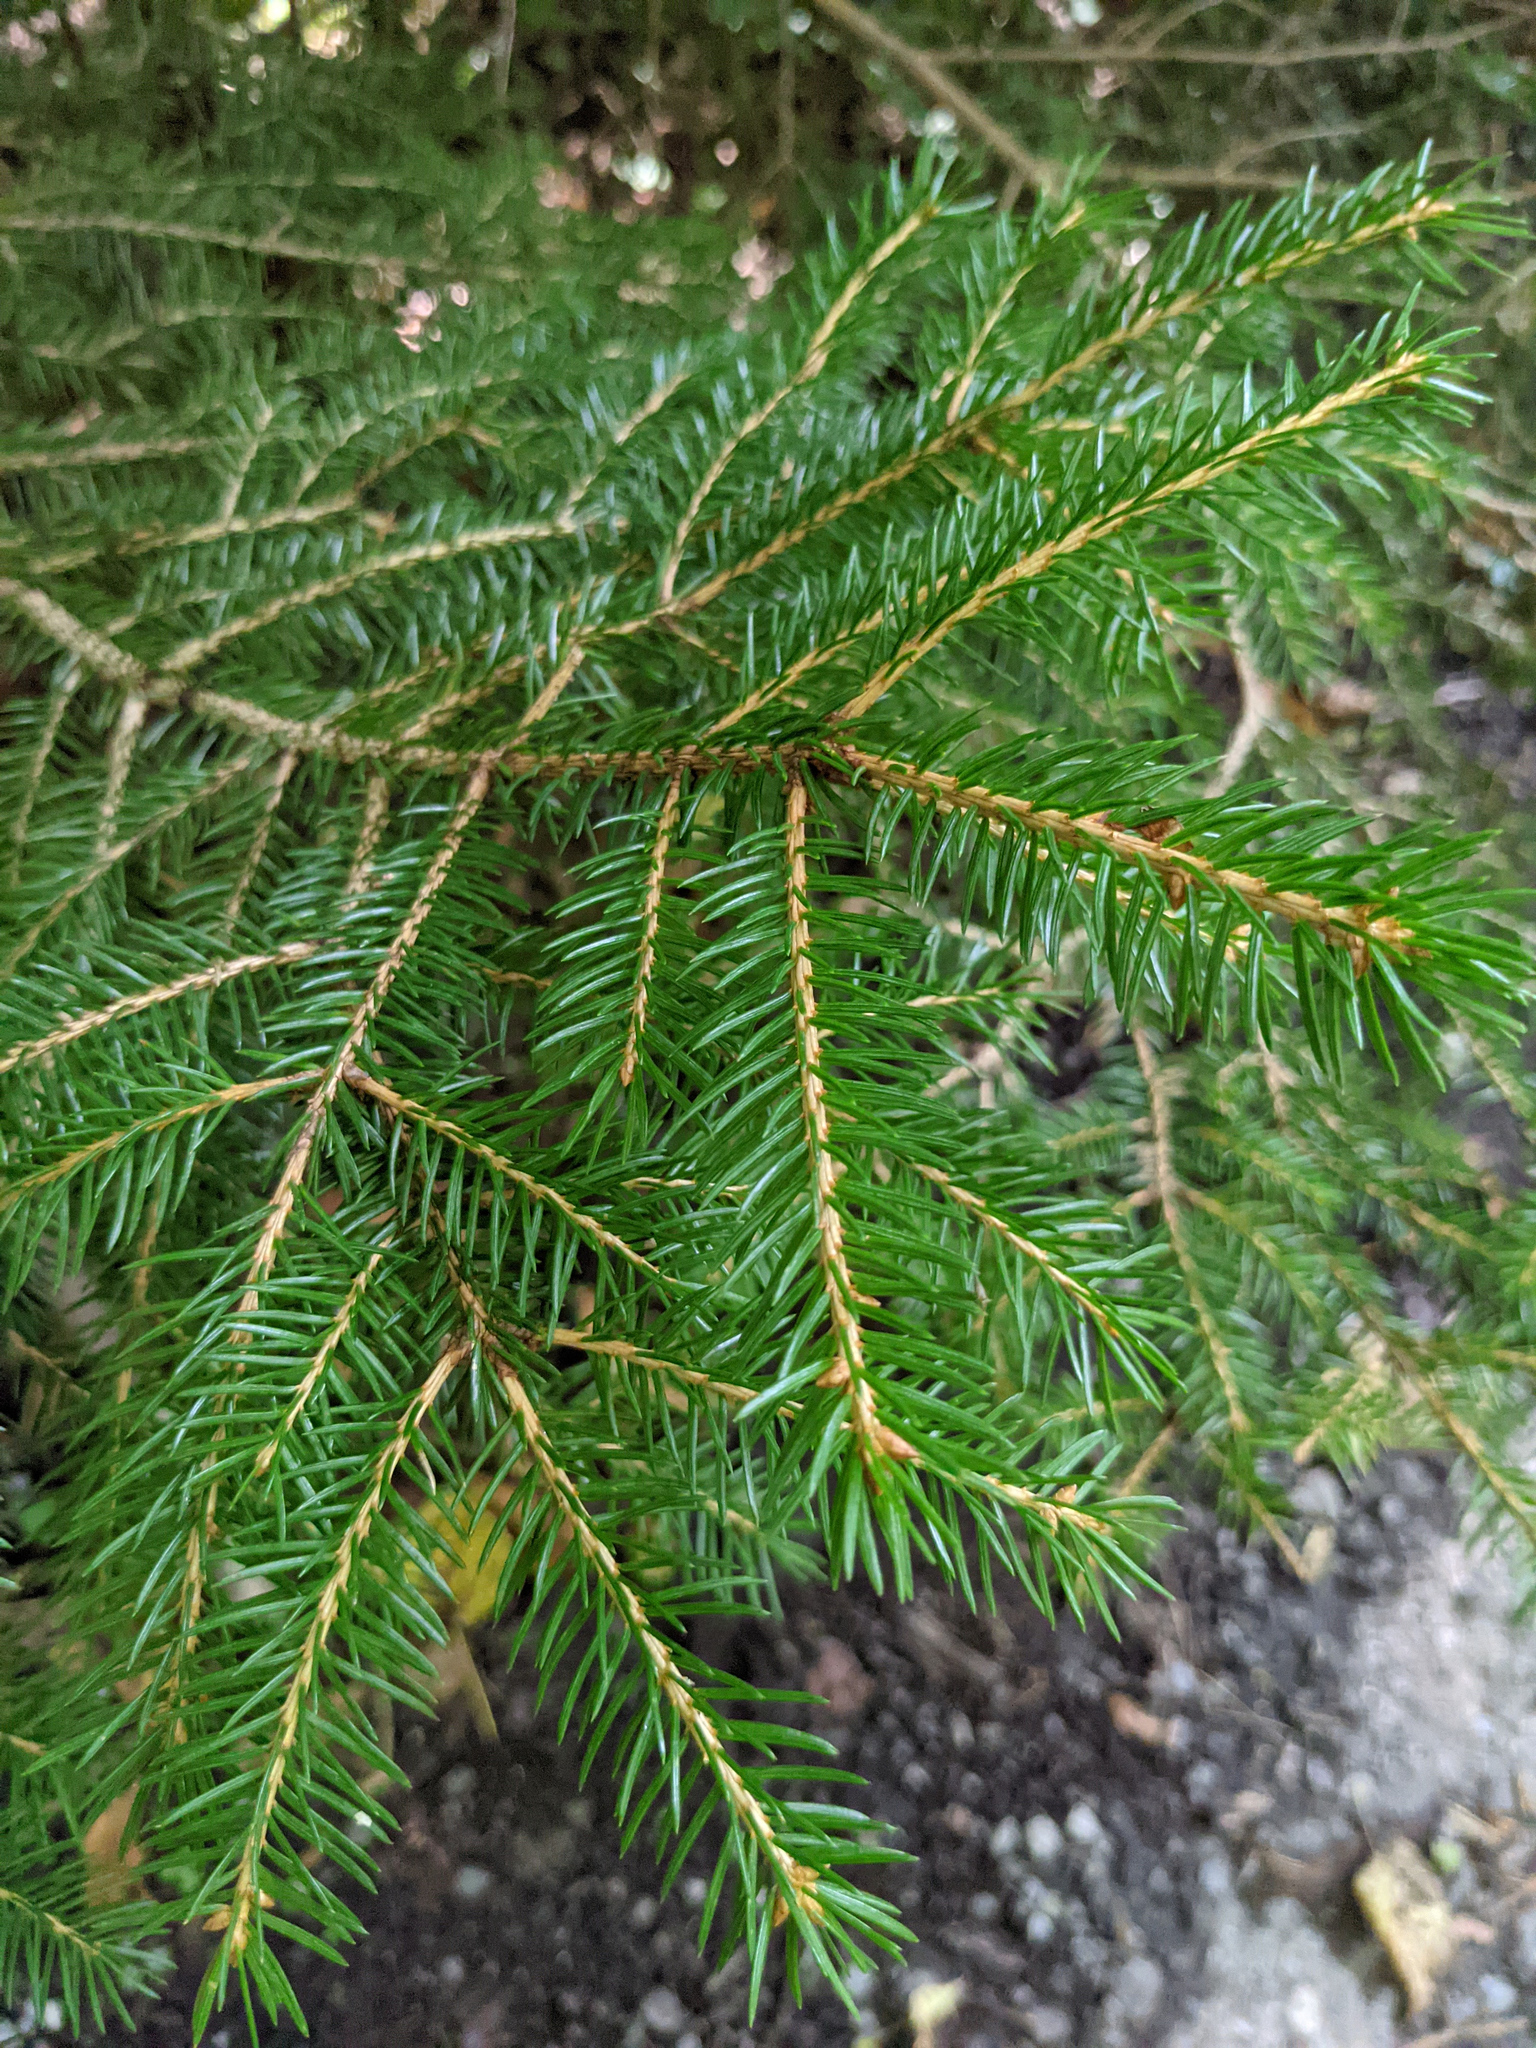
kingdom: Plantae
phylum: Tracheophyta
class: Pinopsida
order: Pinales
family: Pinaceae
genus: Picea
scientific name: Picea abies
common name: Norway spruce
